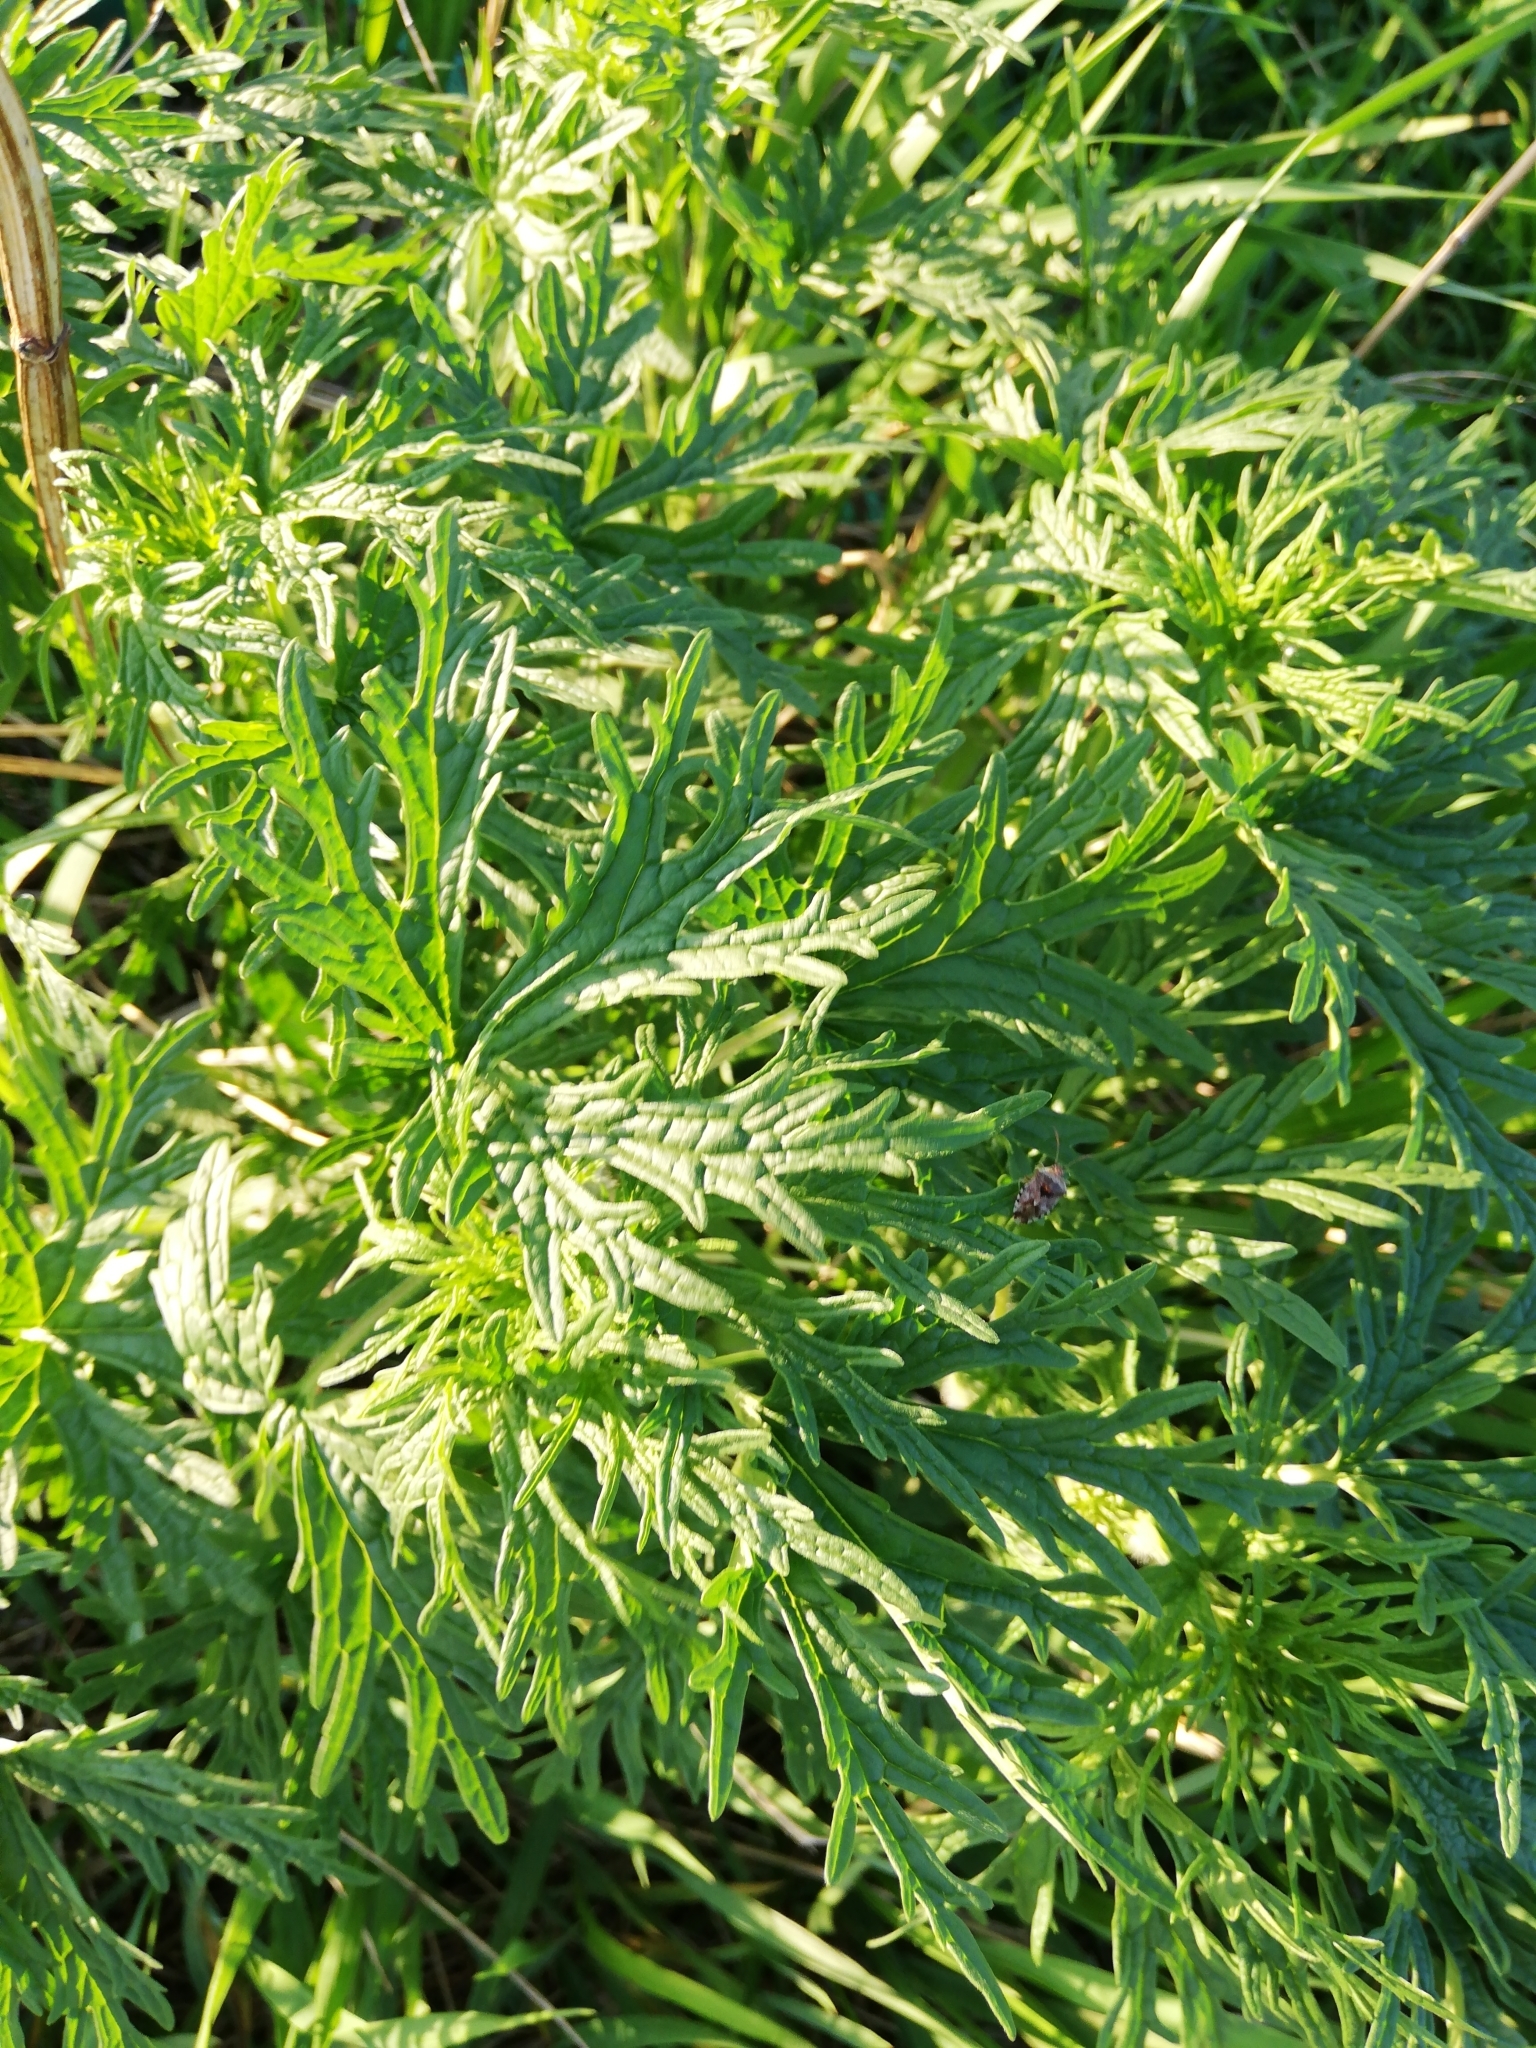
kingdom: Plantae
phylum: Tracheophyta
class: Magnoliopsida
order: Rosales
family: Urticaceae
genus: Urtica
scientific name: Urtica cannabina
